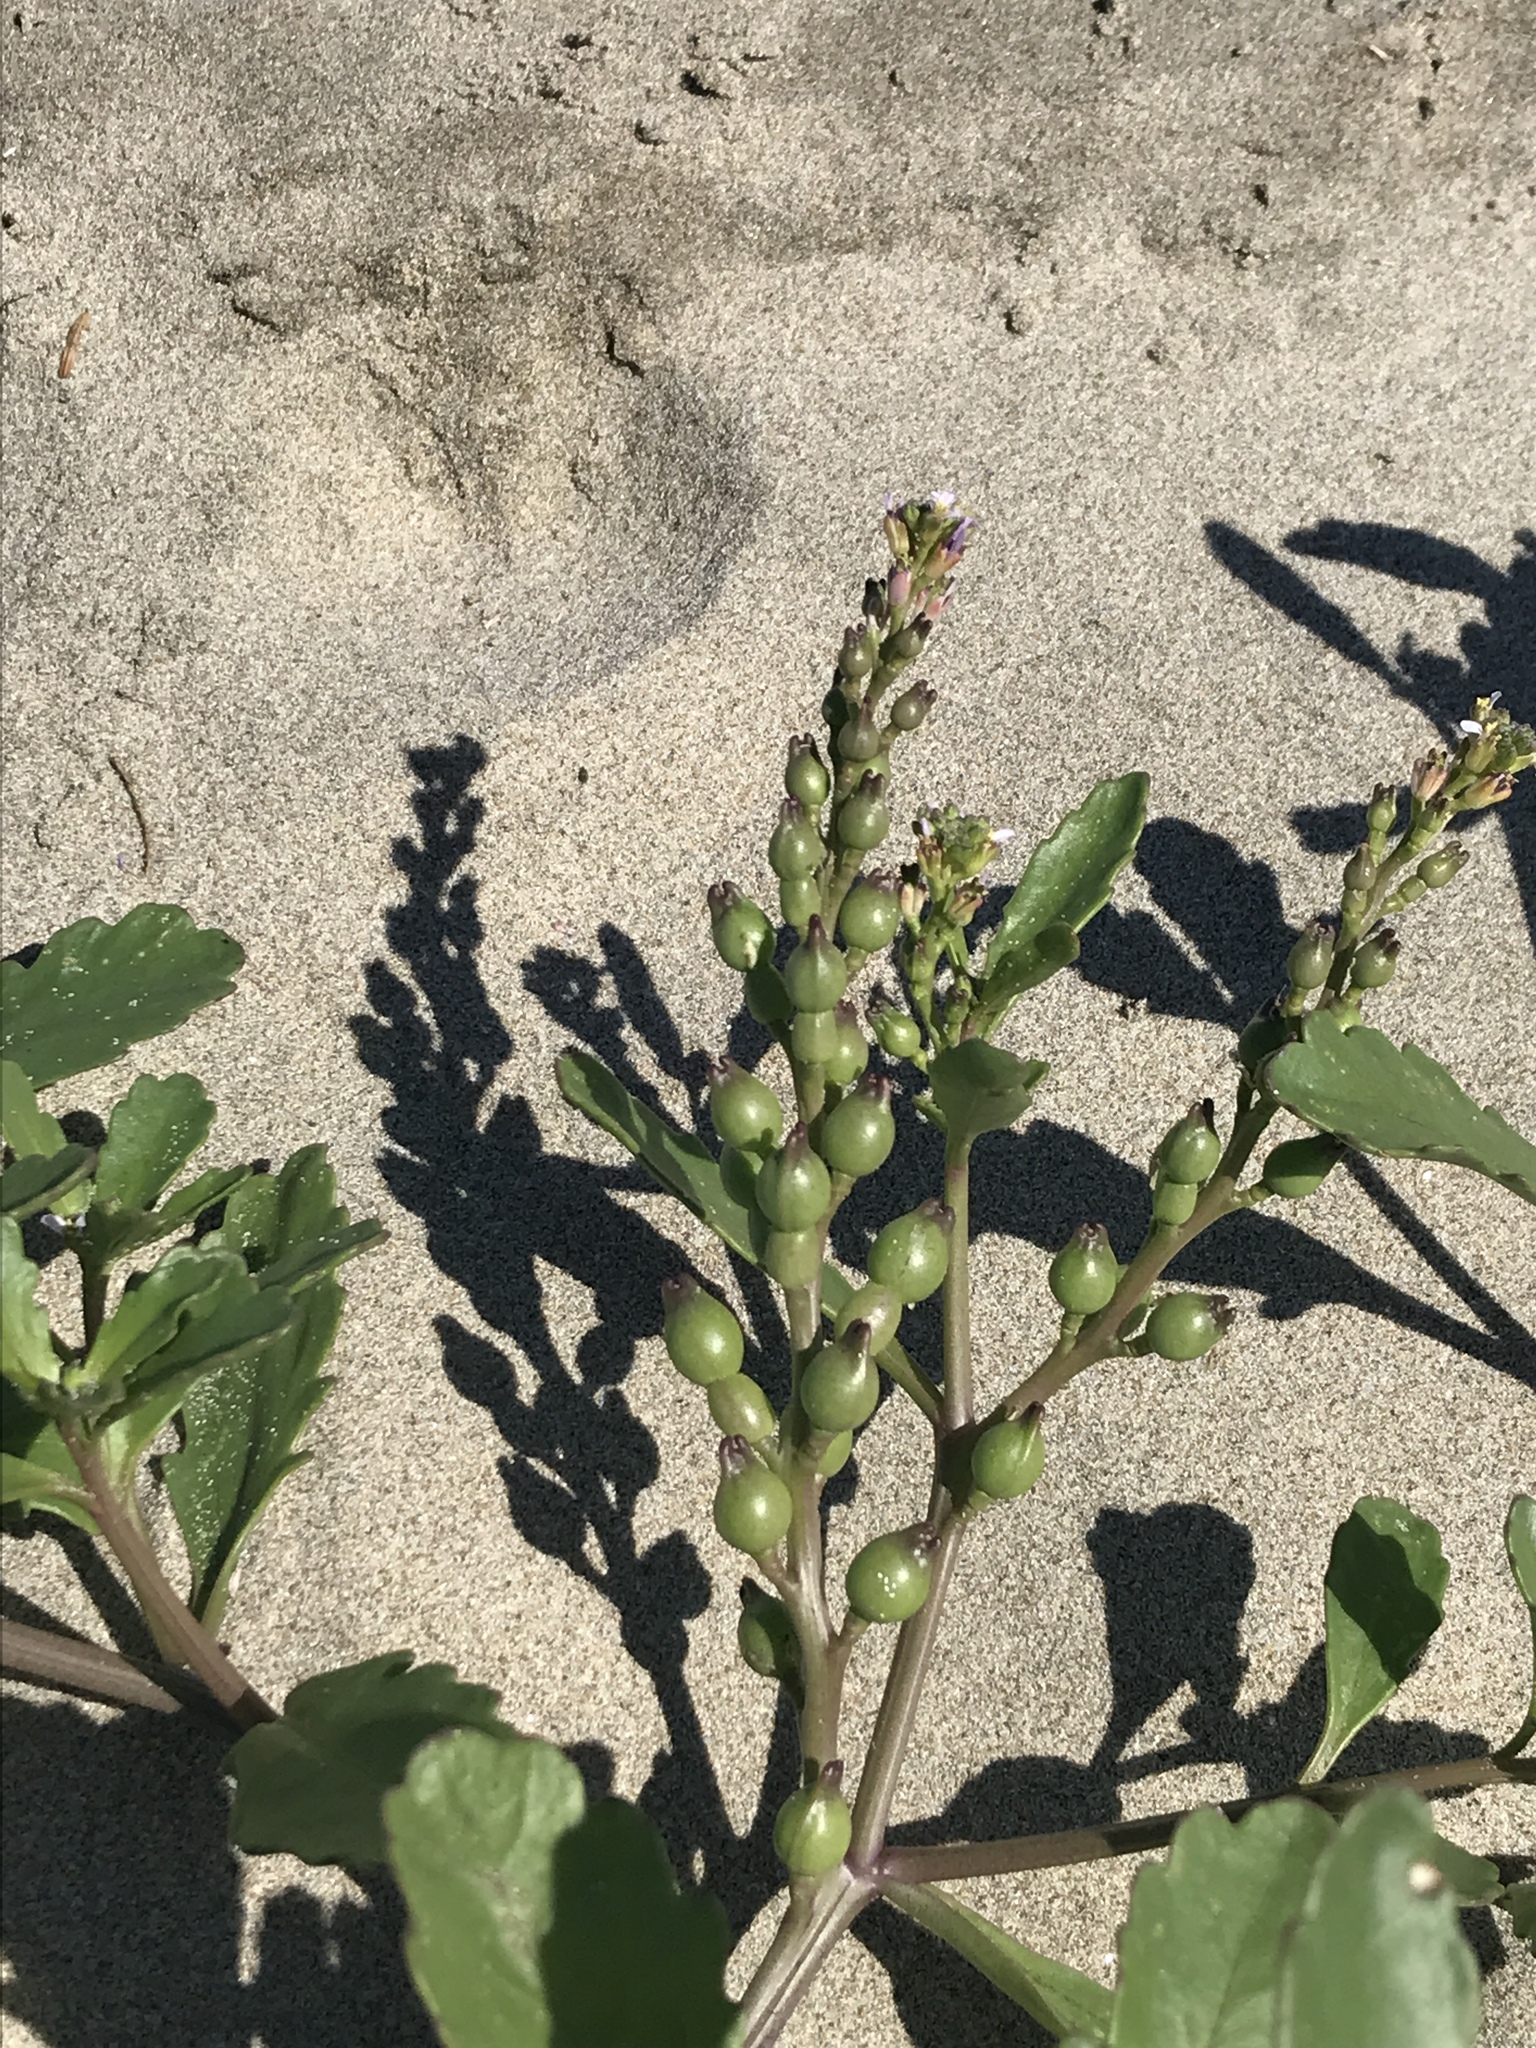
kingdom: Plantae
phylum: Tracheophyta
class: Magnoliopsida
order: Brassicales
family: Brassicaceae
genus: Cakile
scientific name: Cakile edentula
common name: American sea rocket
